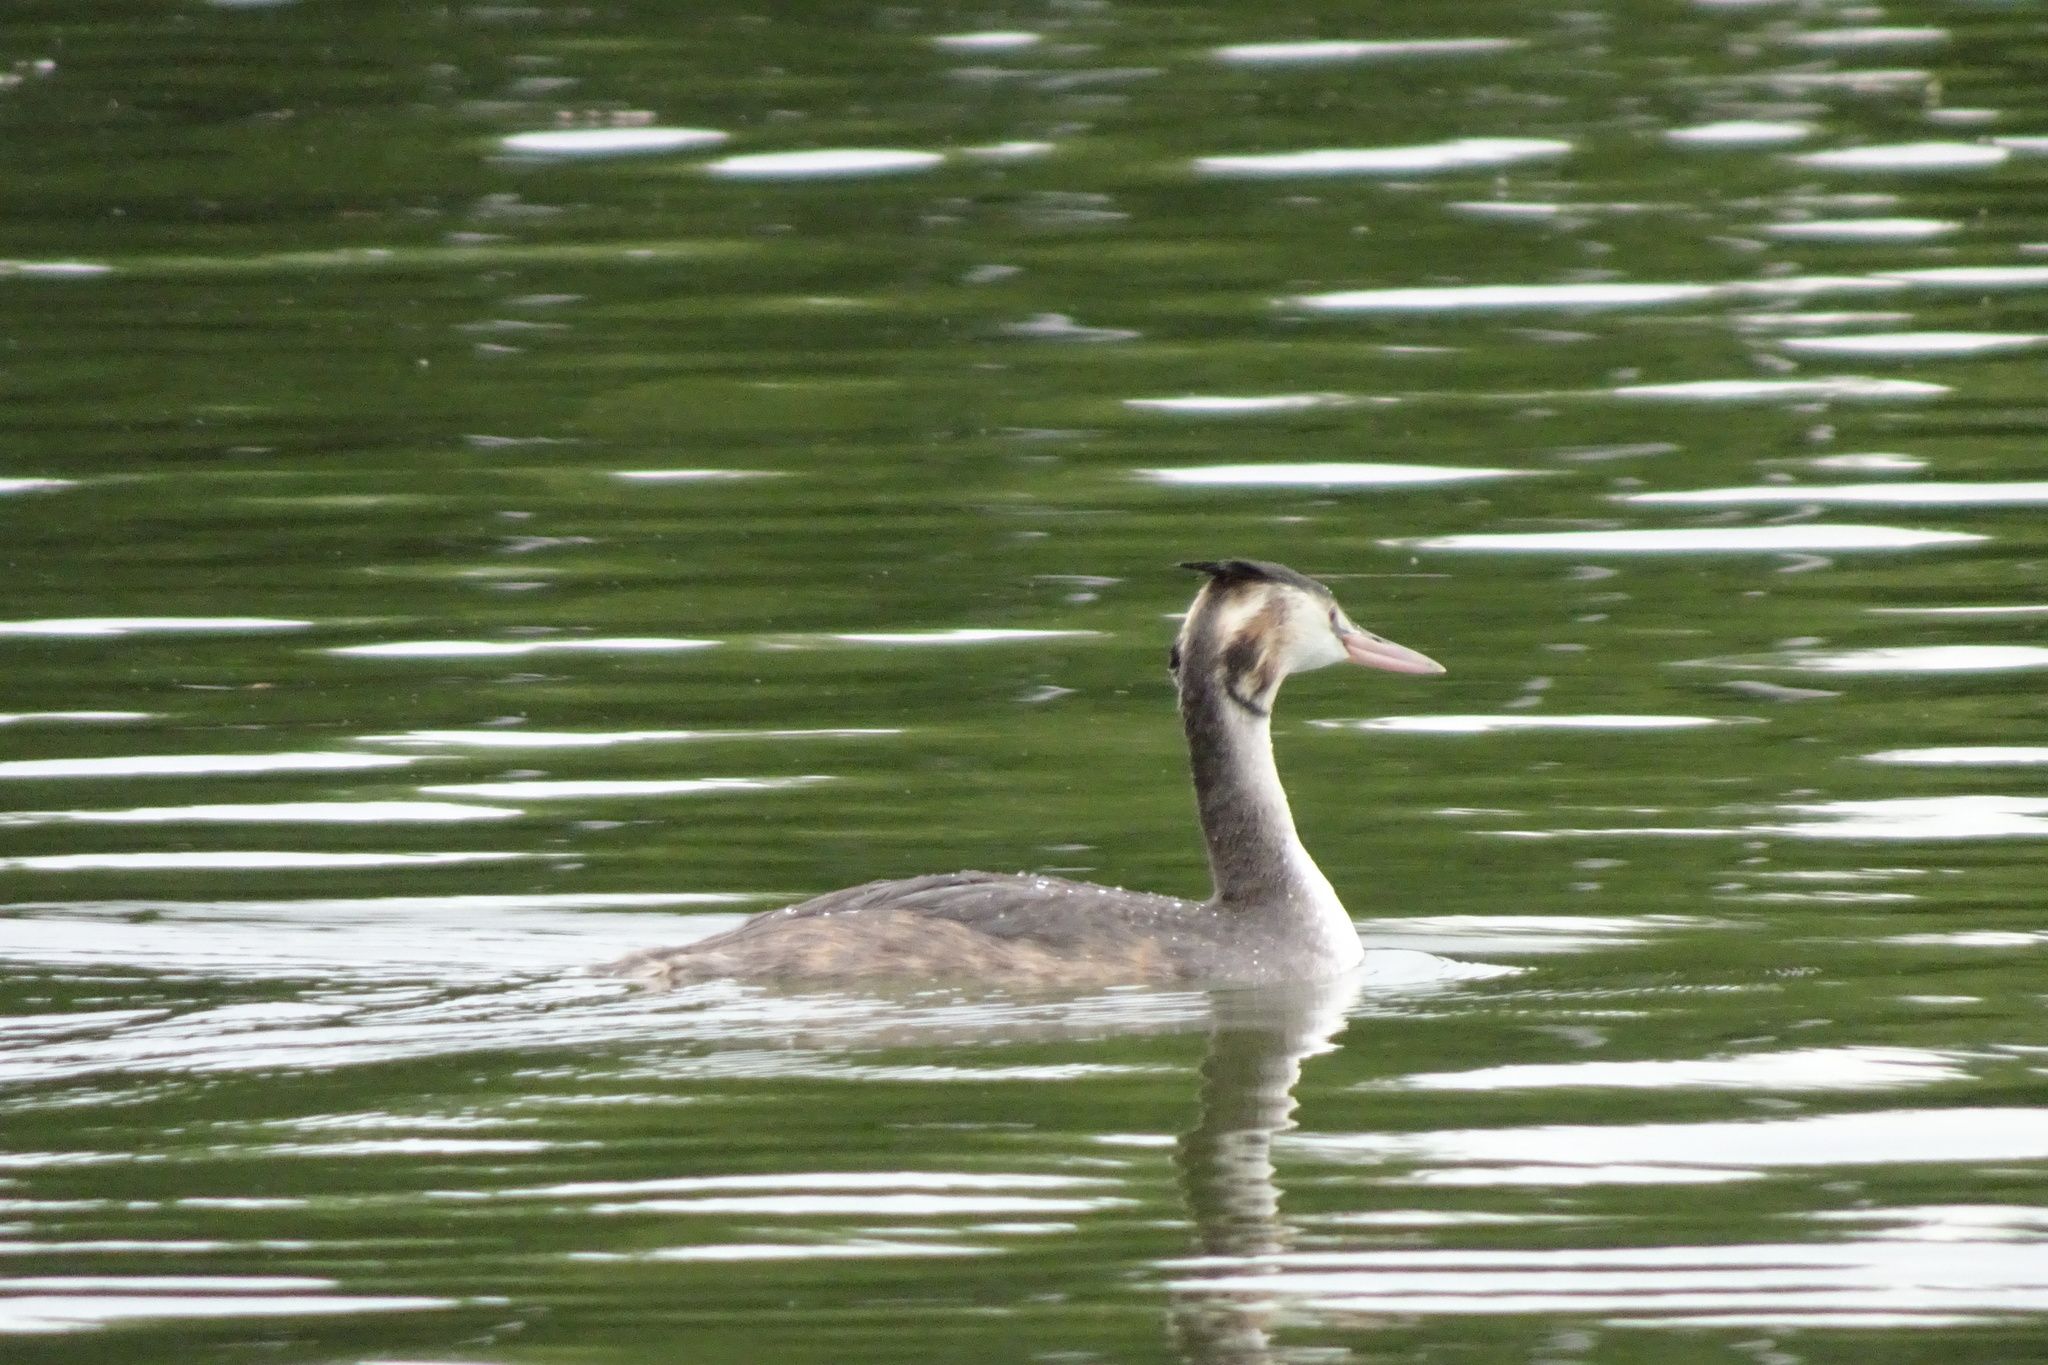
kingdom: Animalia
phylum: Chordata
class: Aves
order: Podicipediformes
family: Podicipedidae
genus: Podiceps
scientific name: Podiceps cristatus
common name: Great crested grebe
